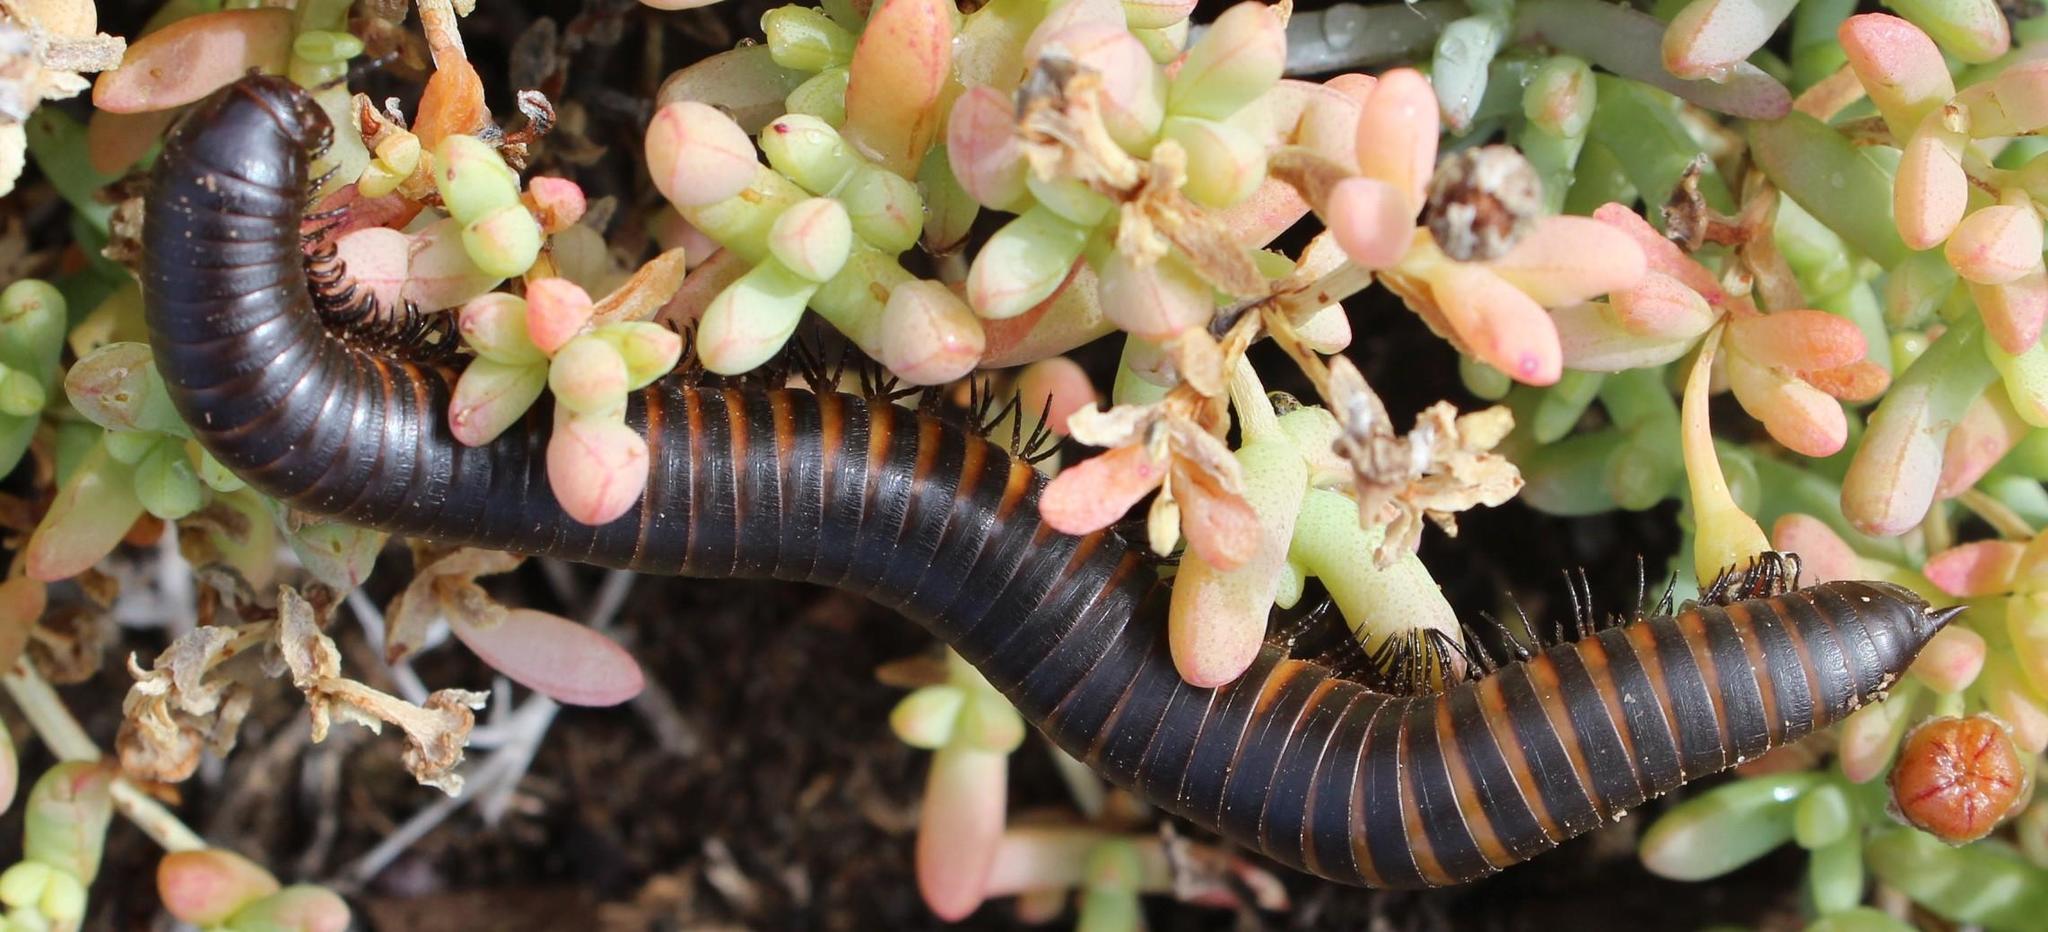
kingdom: Animalia
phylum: Arthropoda
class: Diplopoda
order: Spirostreptida
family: Harpagophoridae
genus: Metaphora
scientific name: Metaphora spirobolina
